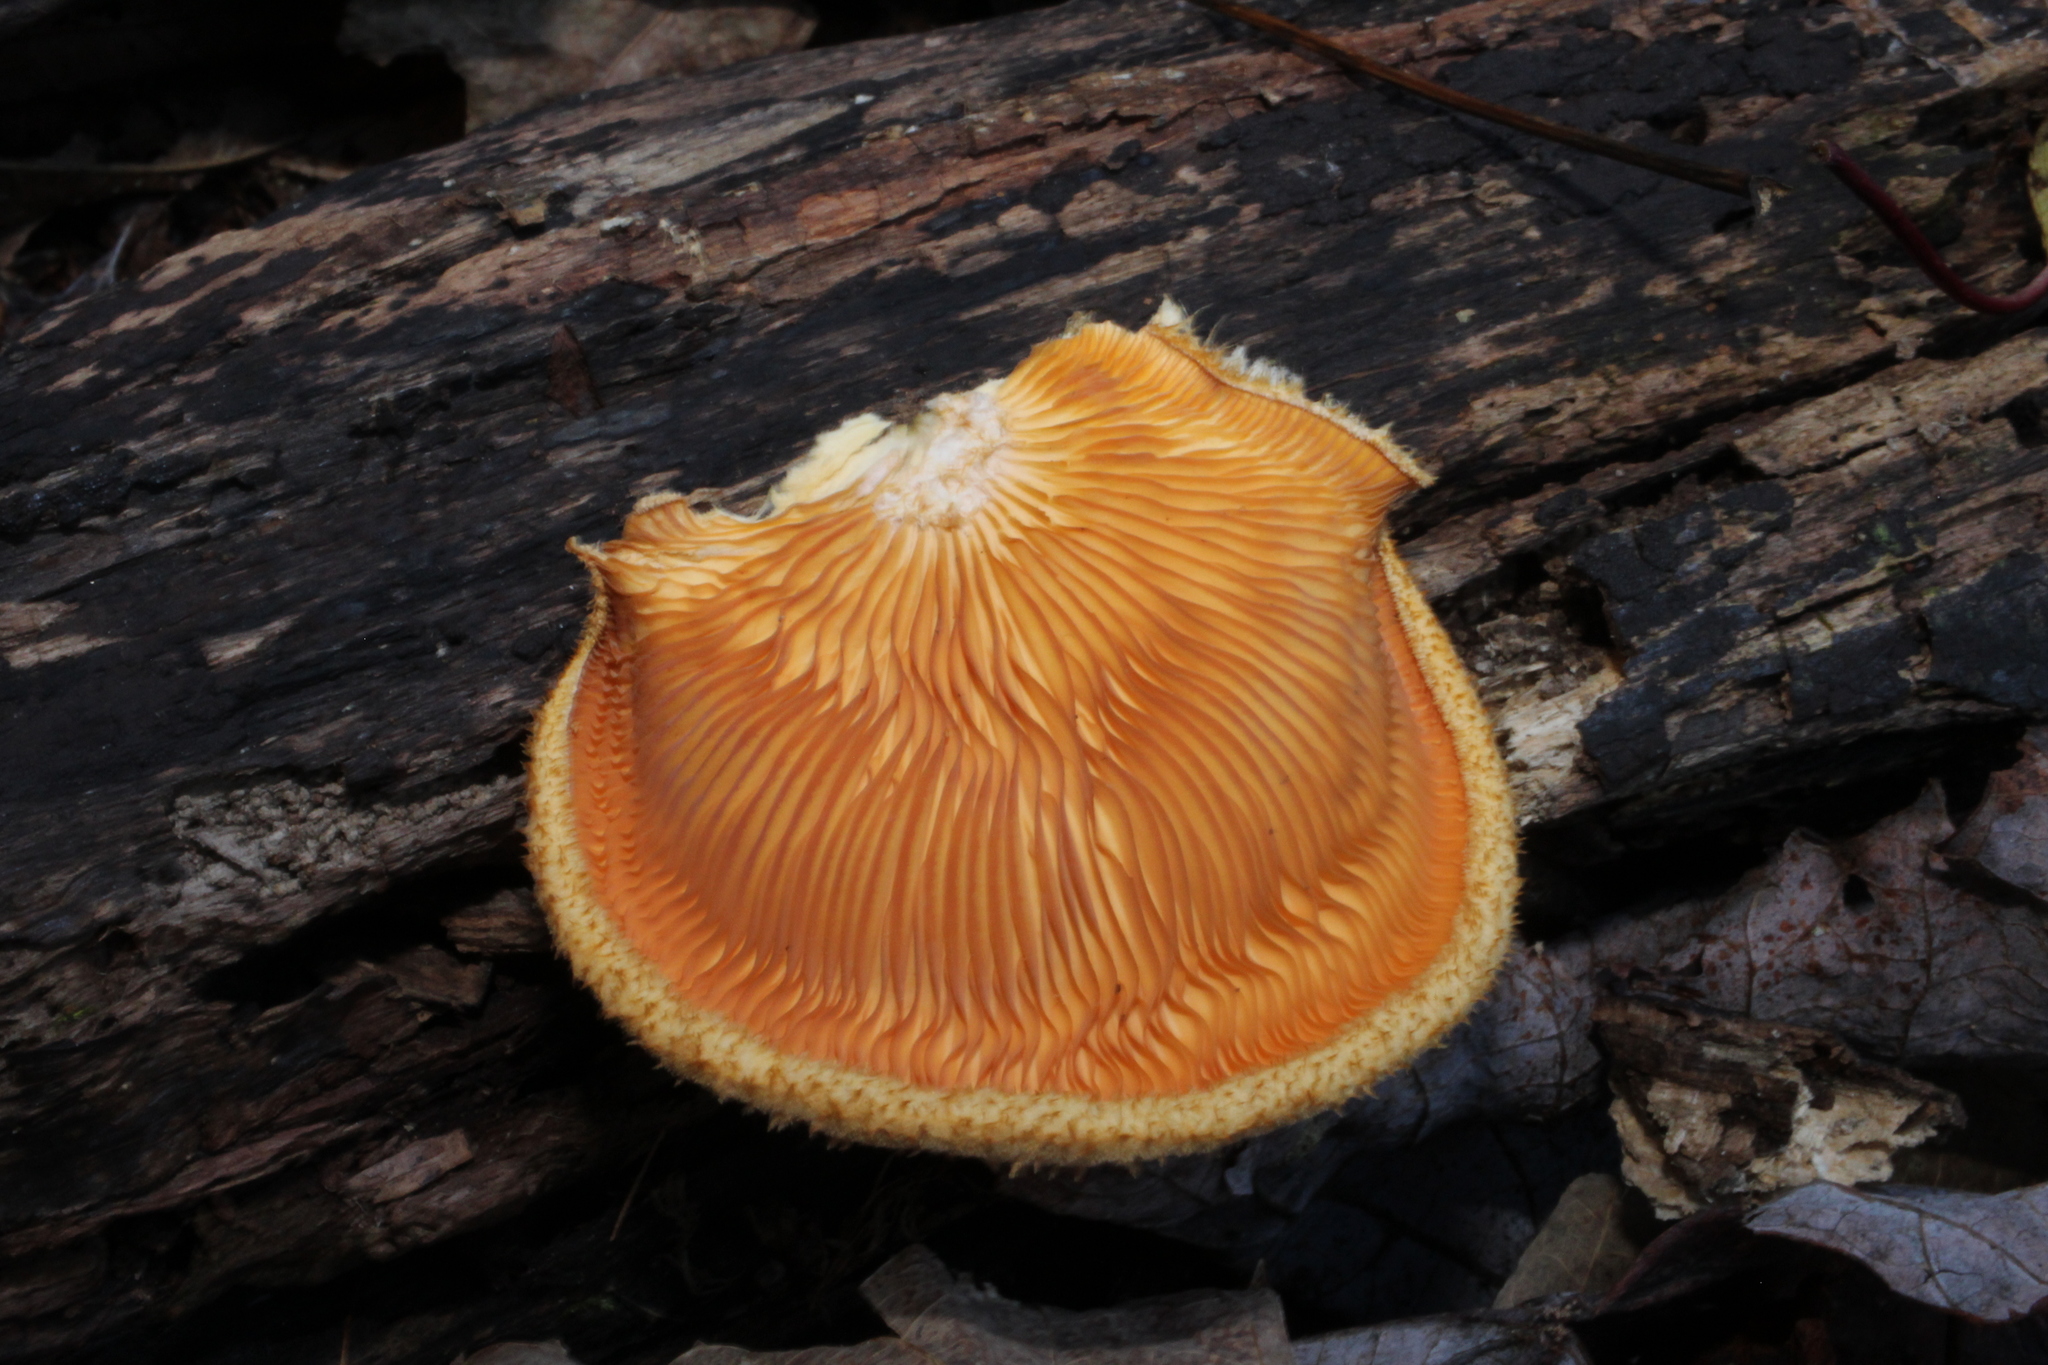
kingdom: Fungi
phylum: Basidiomycota
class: Agaricomycetes
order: Agaricales
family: Phyllotopsidaceae
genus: Phyllotopsis
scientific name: Phyllotopsis nidulans
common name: Orange mock oyster
